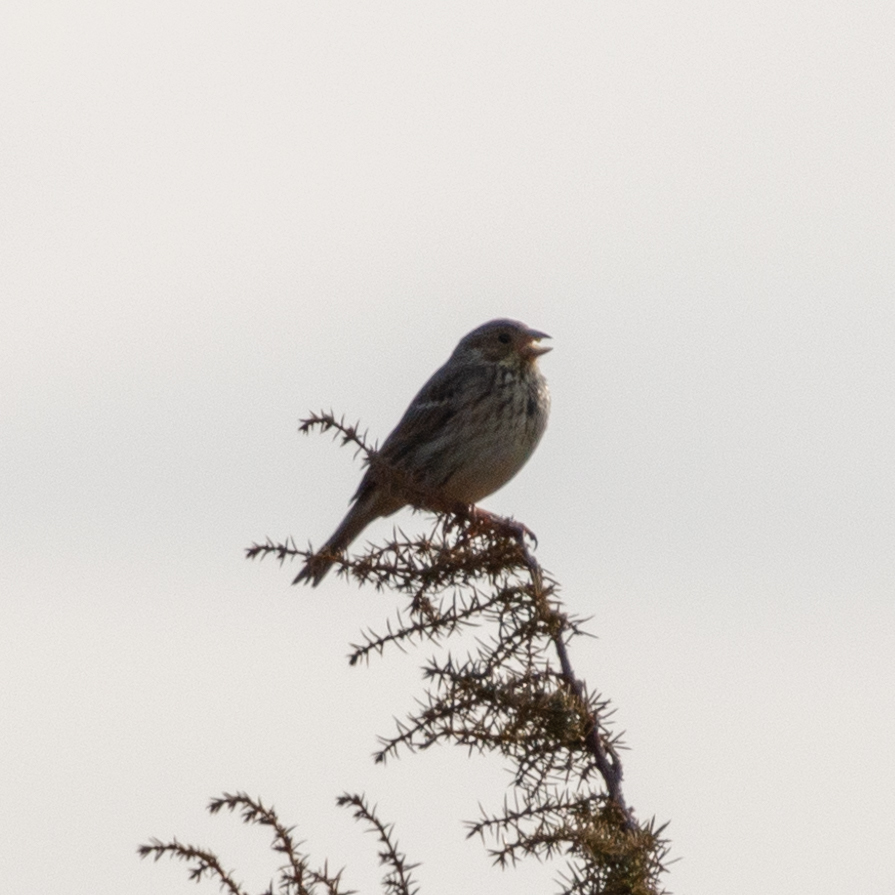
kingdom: Animalia
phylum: Chordata
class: Aves
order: Passeriformes
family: Emberizidae
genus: Emberiza
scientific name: Emberiza calandra
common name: Corn bunting
